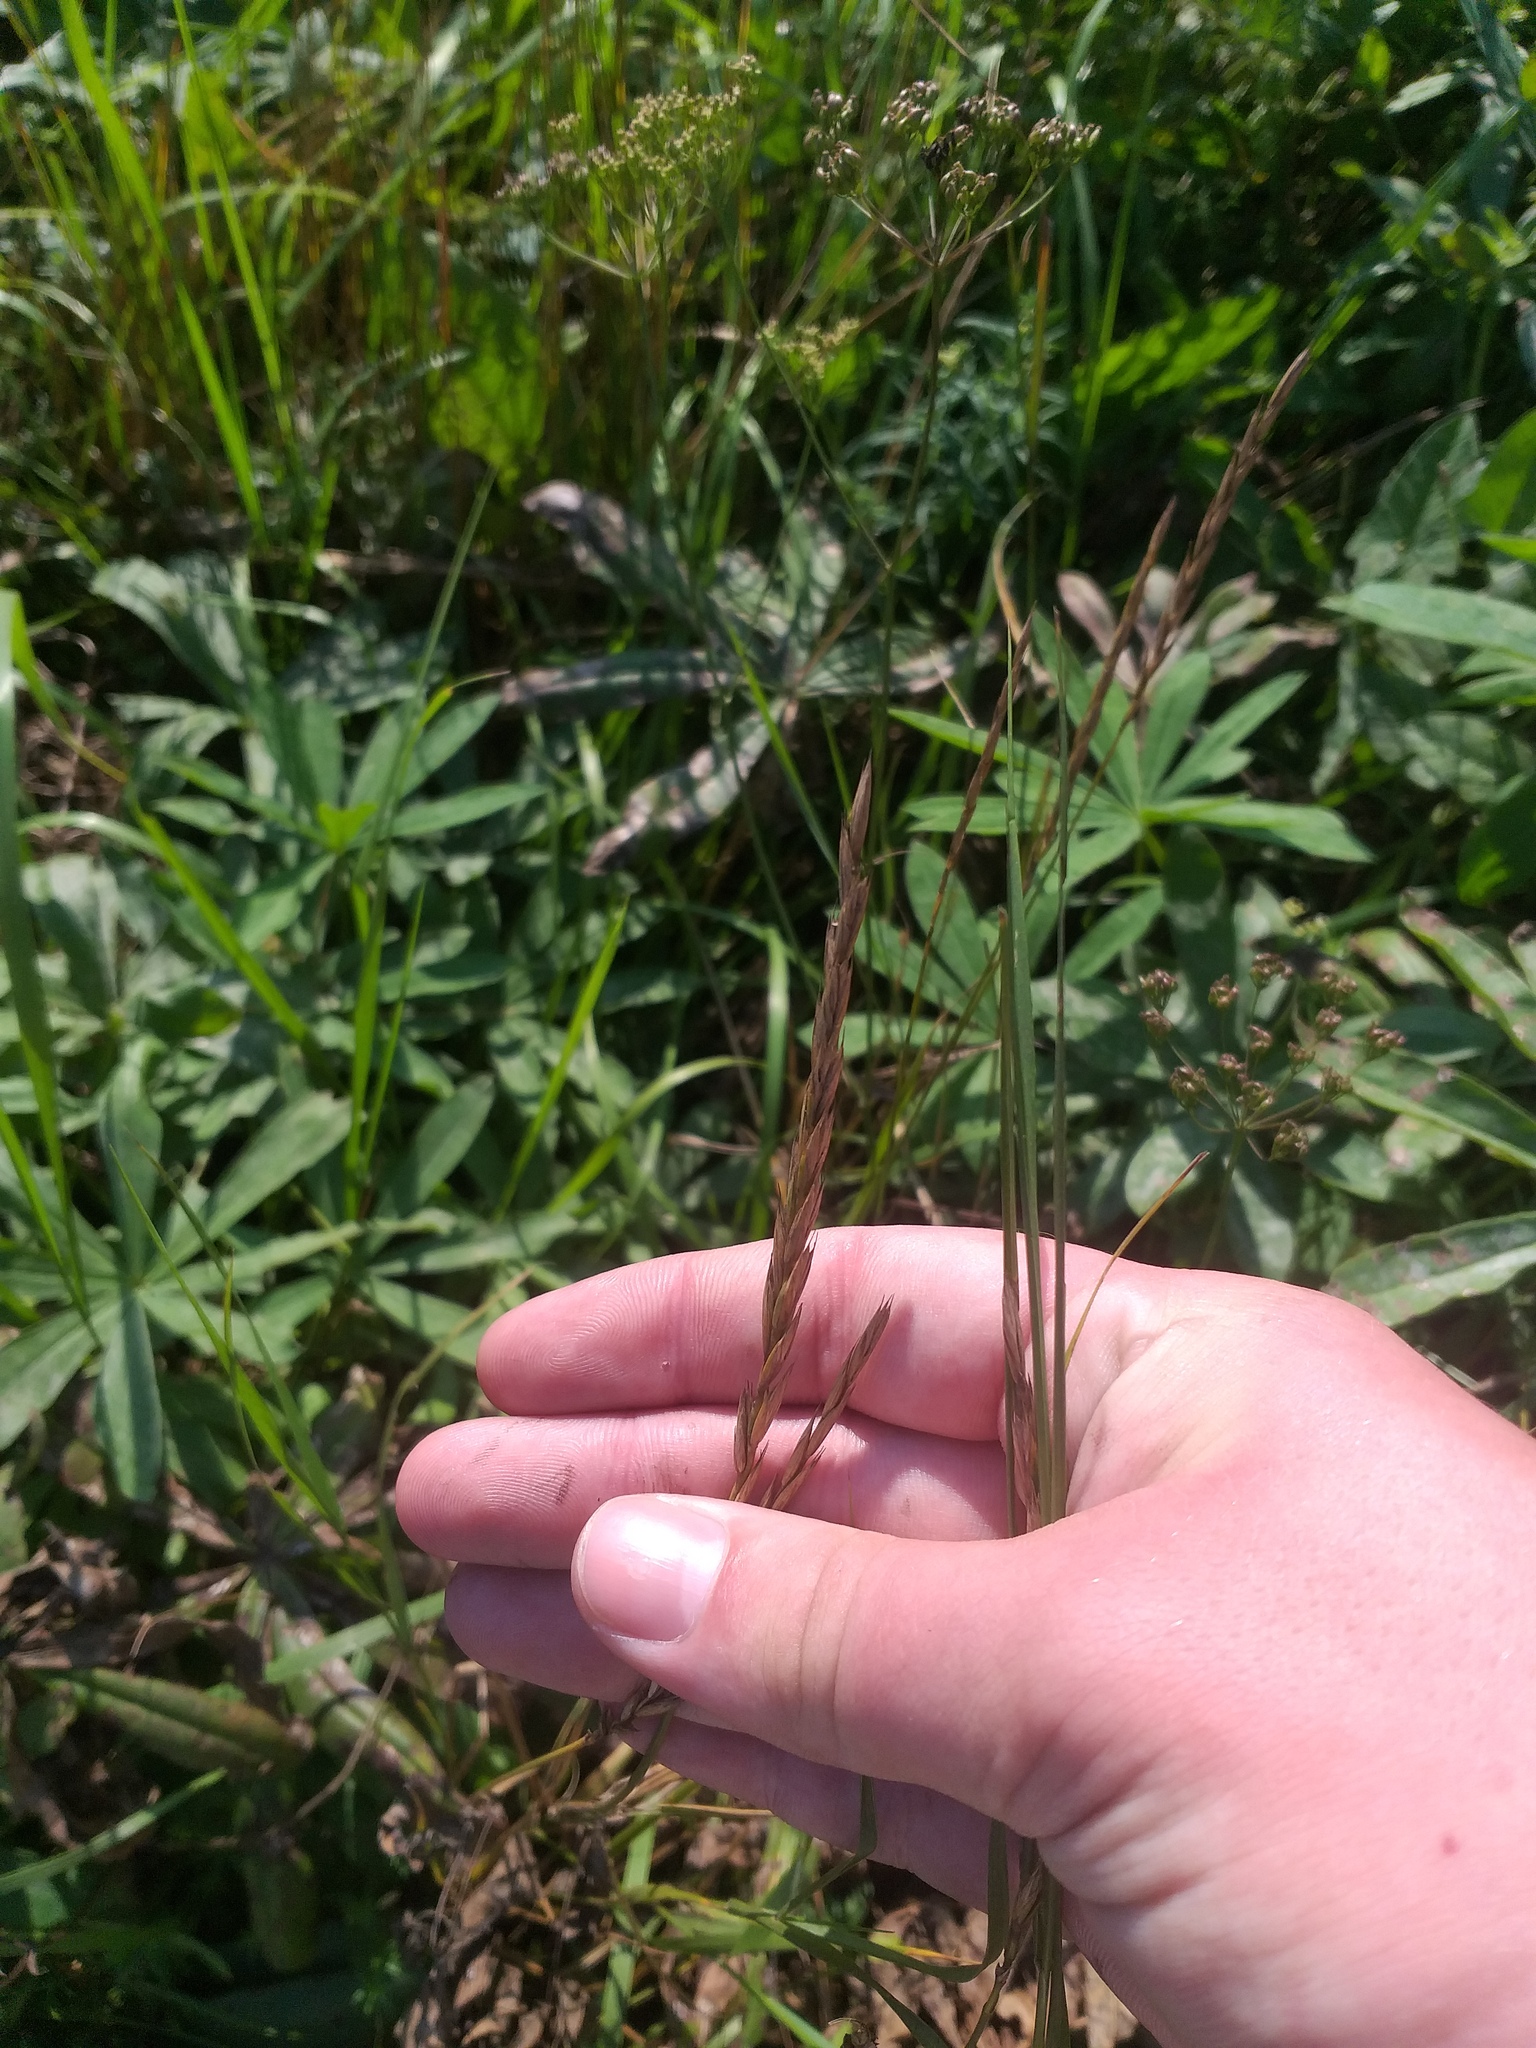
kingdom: Plantae
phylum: Tracheophyta
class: Liliopsida
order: Poales
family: Poaceae
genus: Elymus
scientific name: Elymus repens
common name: Quackgrass
